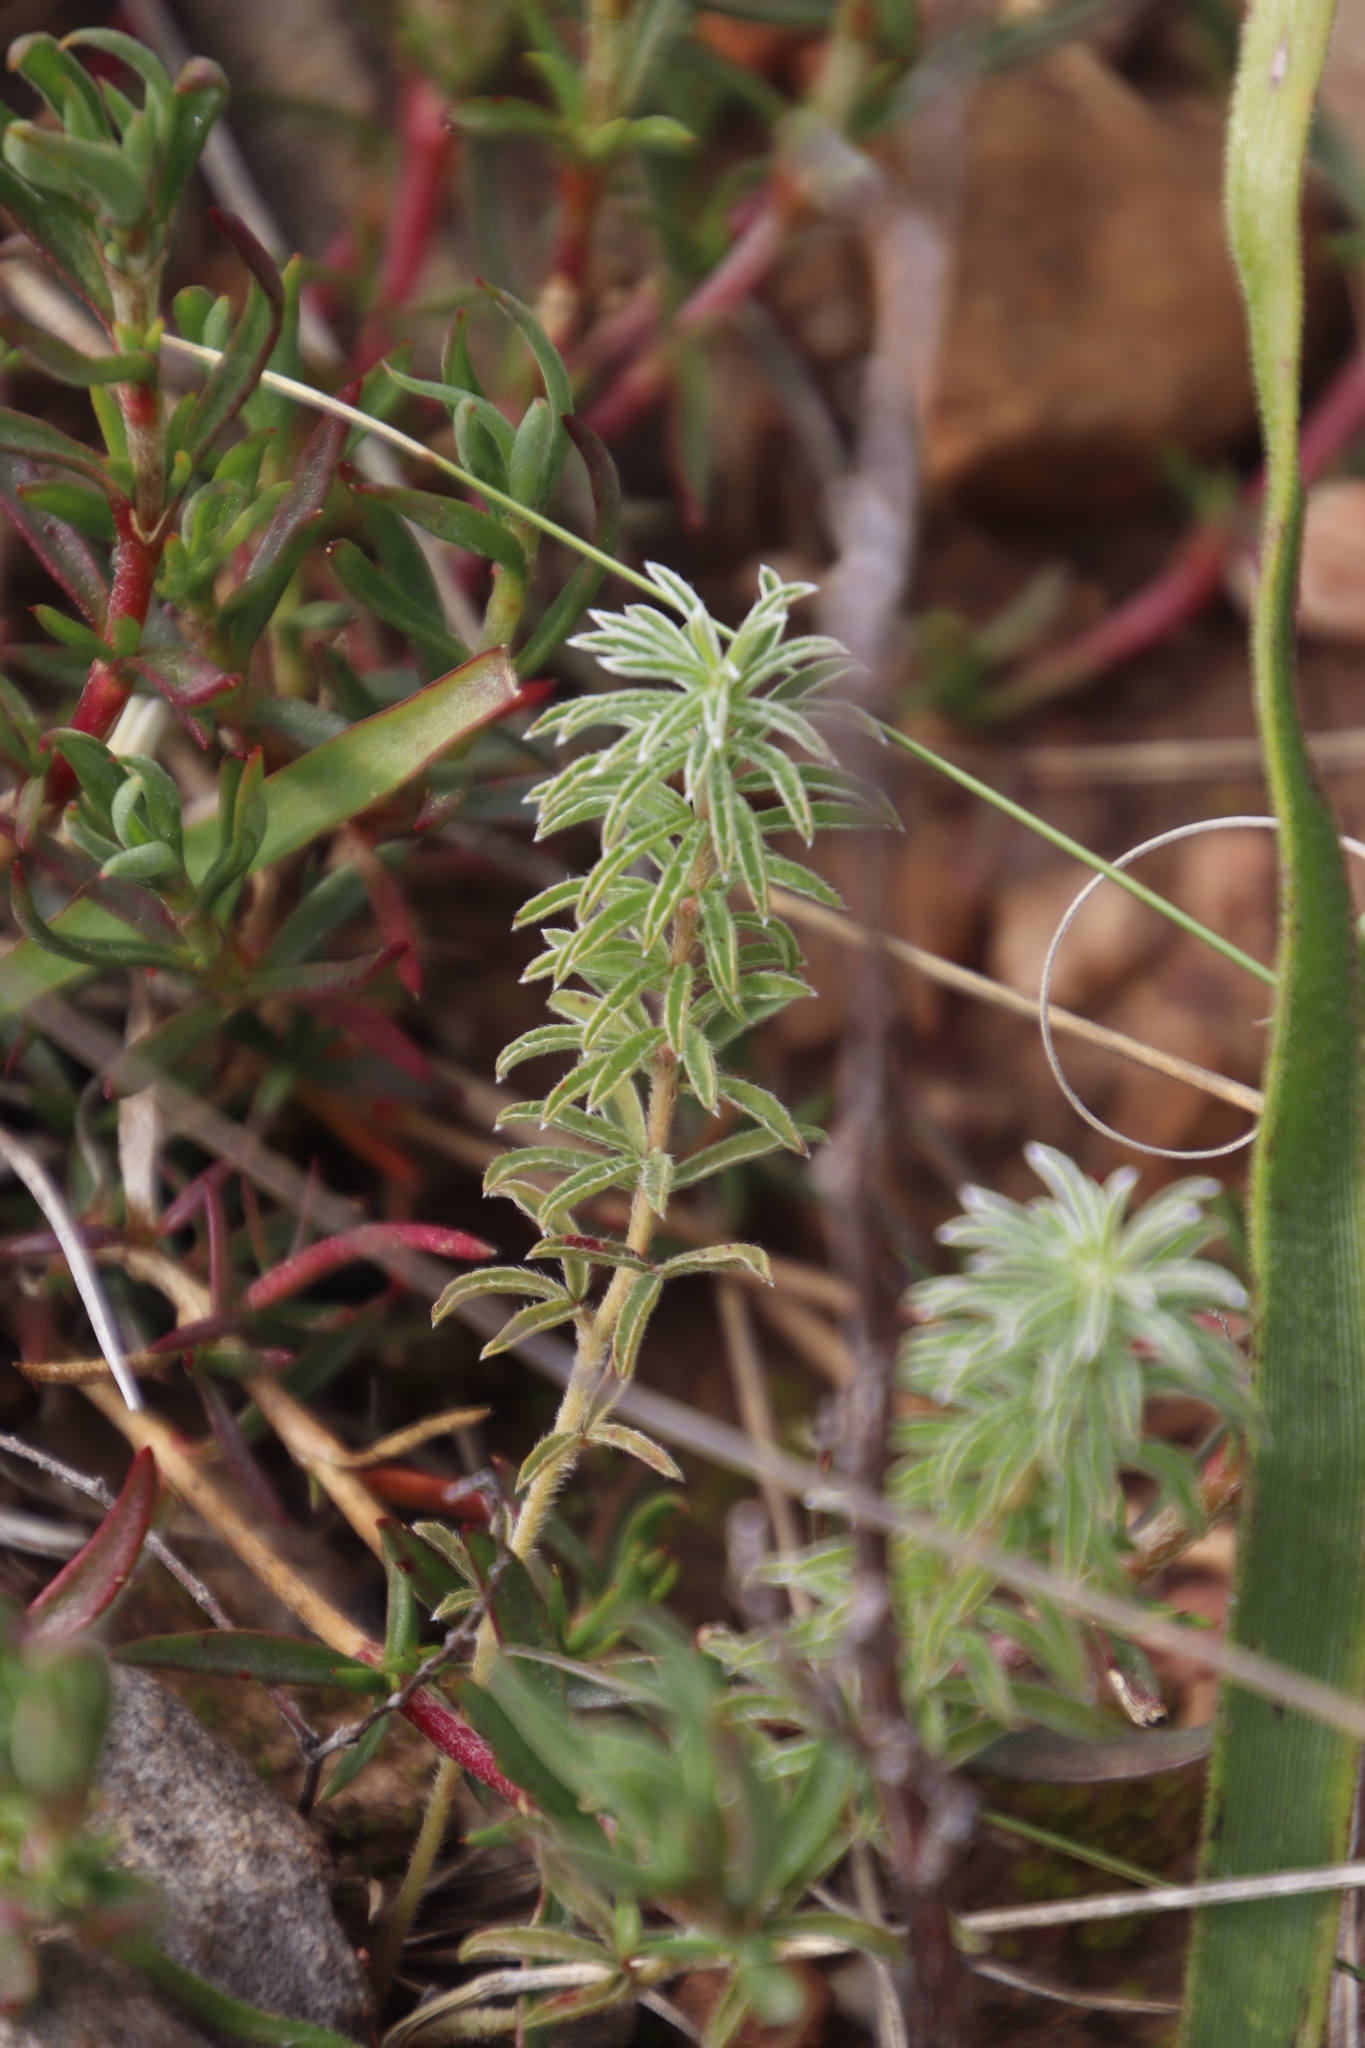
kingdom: Plantae
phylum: Tracheophyta
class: Magnoliopsida
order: Oxalidales
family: Oxalidaceae
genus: Oxalis
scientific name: Oxalis hirta
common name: Tropical woodsorrel
